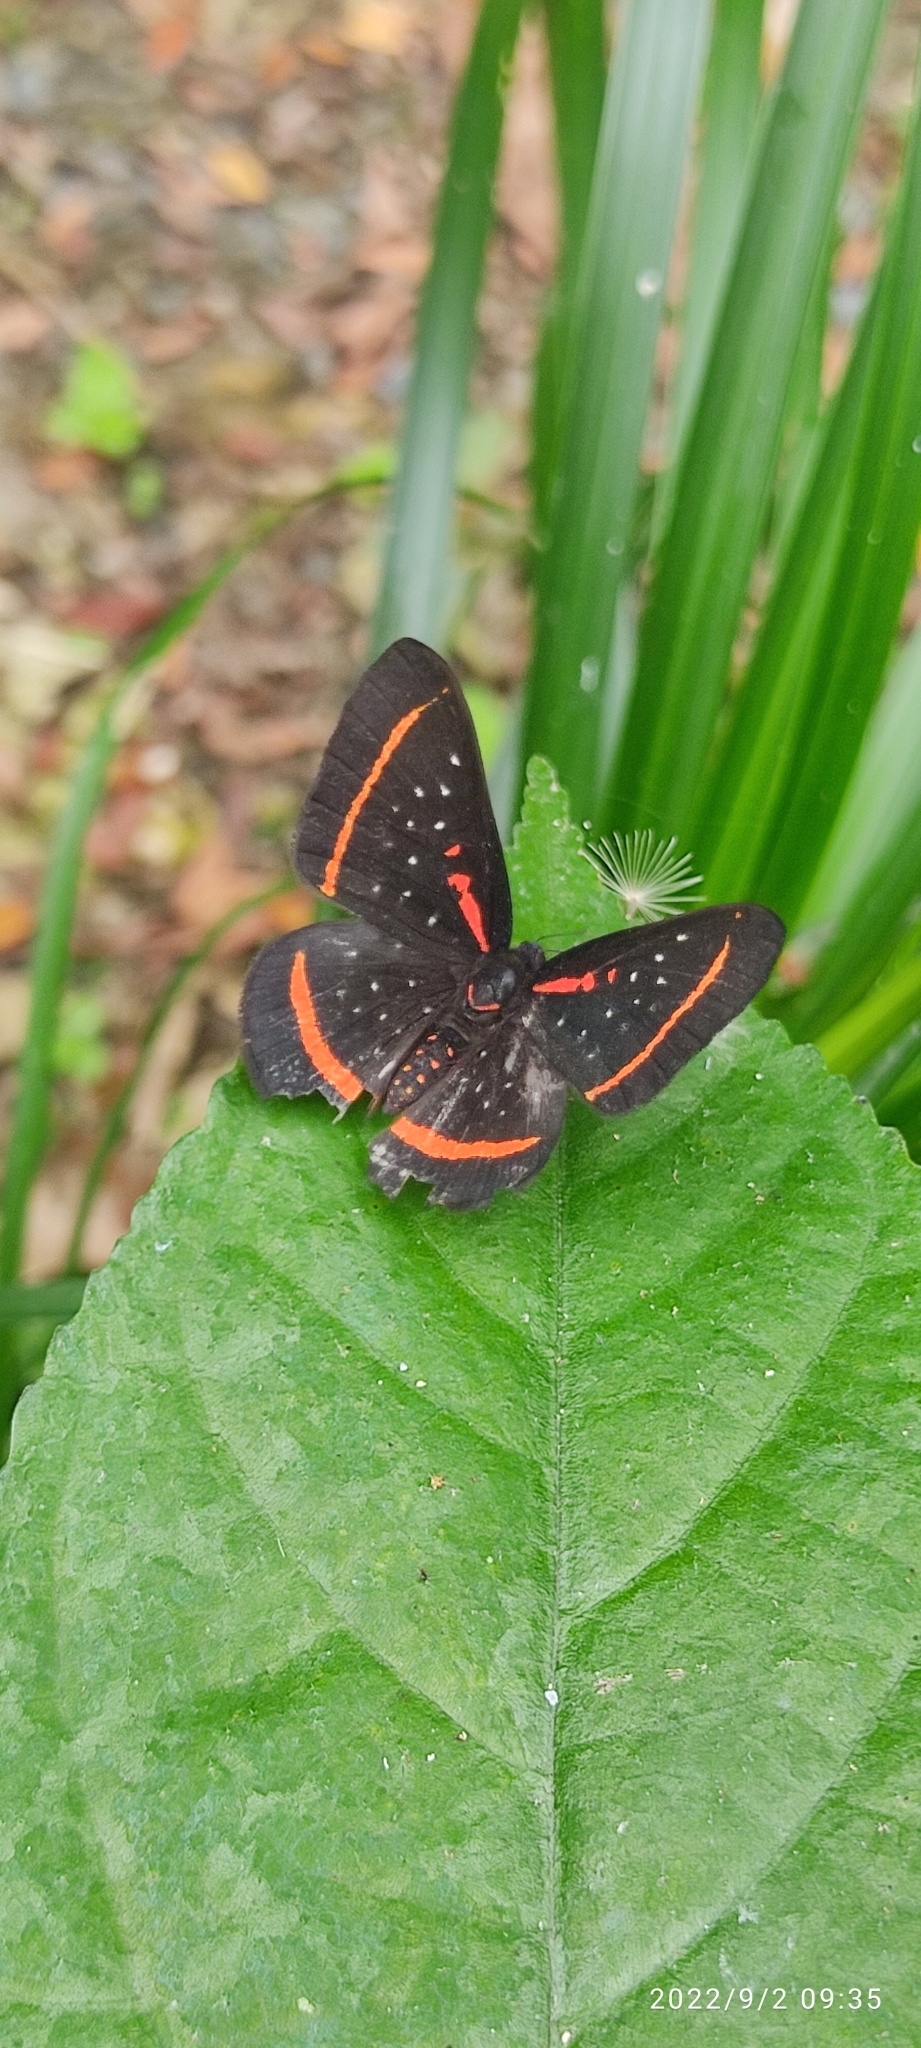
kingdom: Animalia
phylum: Arthropoda
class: Insecta
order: Lepidoptera
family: Riodinidae
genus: Amarynthis
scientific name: Amarynthis meneria
